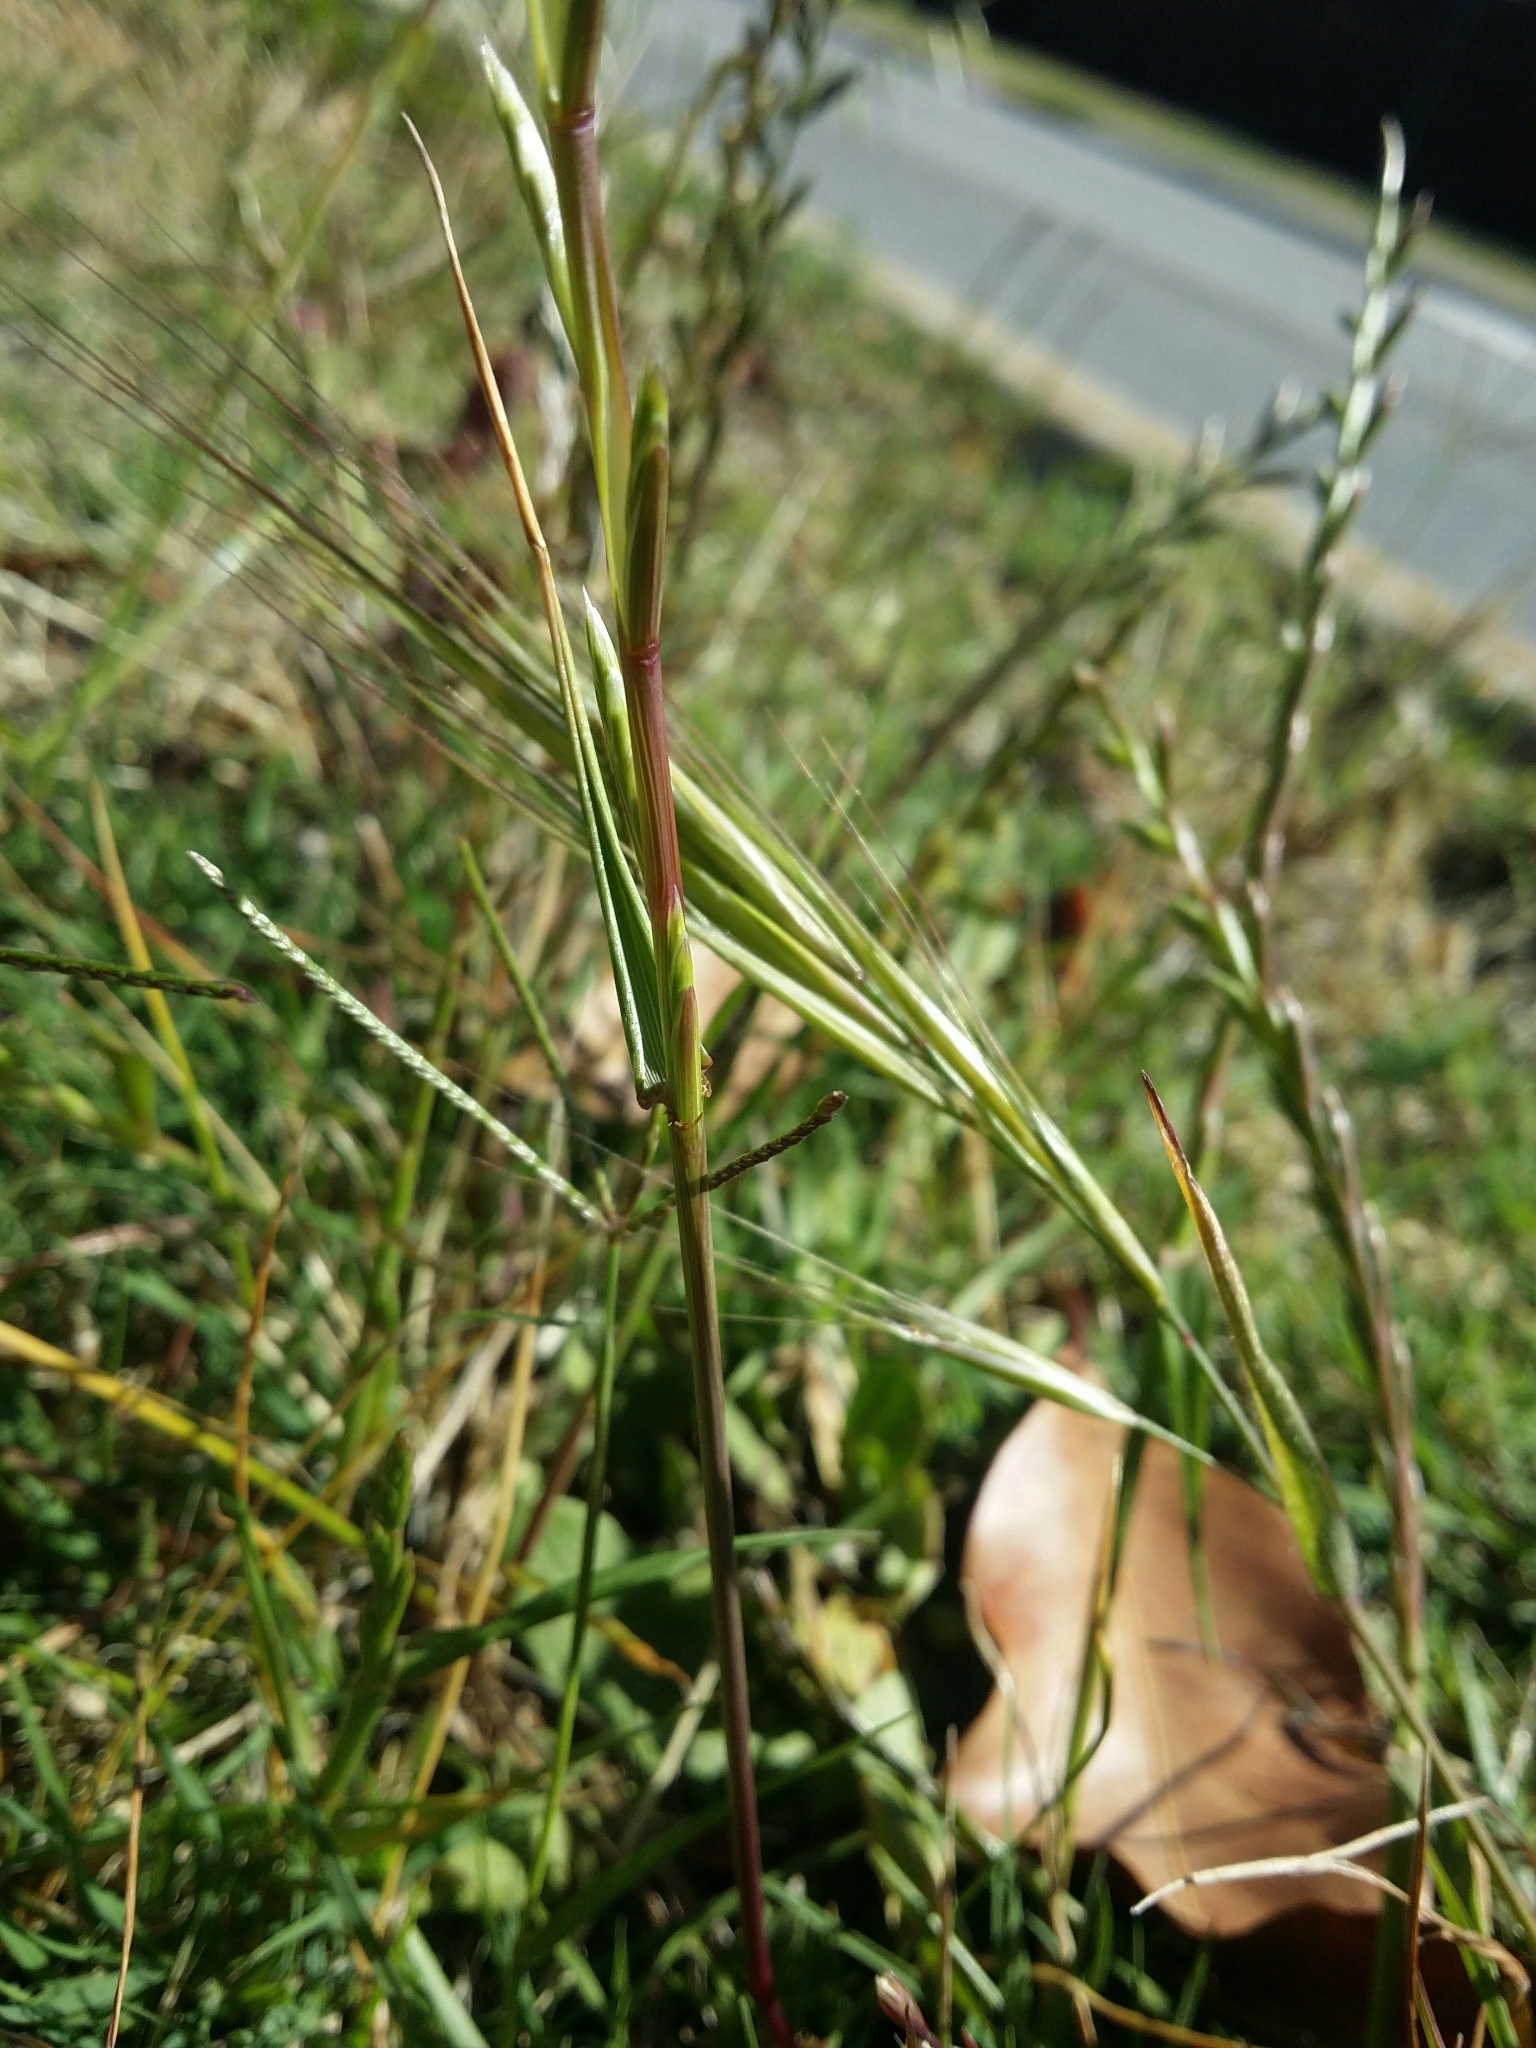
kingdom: Plantae
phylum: Tracheophyta
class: Liliopsida
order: Poales
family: Poaceae
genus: Lolium
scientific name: Lolium perenne
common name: Perennial ryegrass
